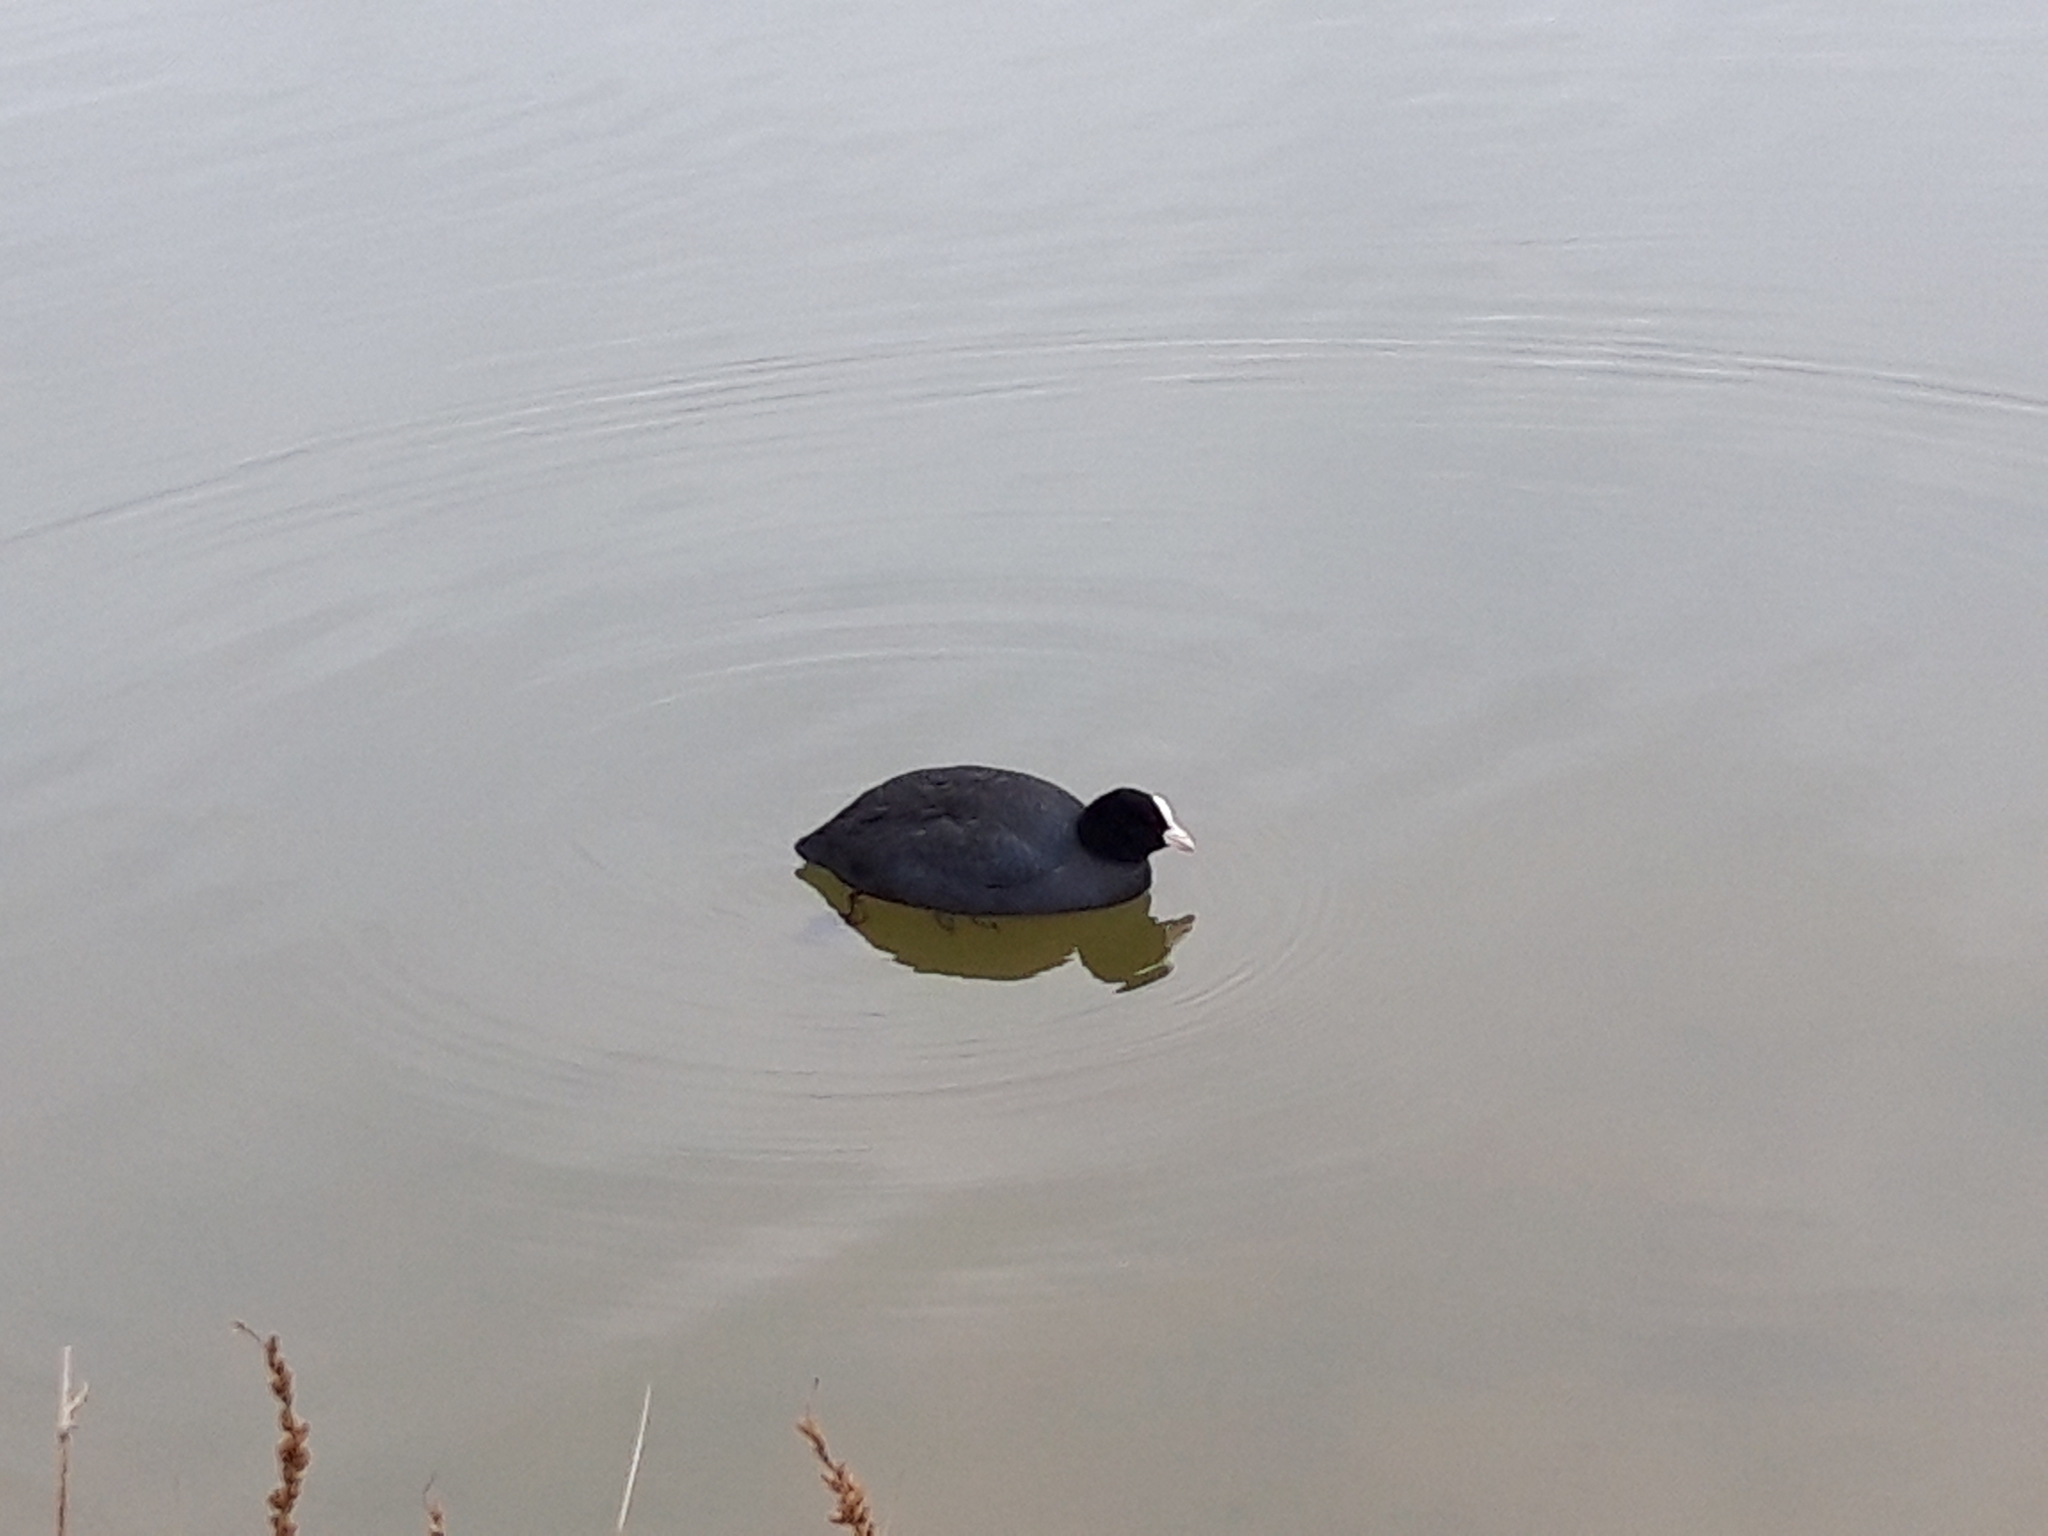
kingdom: Animalia
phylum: Chordata
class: Aves
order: Gruiformes
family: Rallidae
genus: Fulica
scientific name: Fulica atra
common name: Eurasian coot
